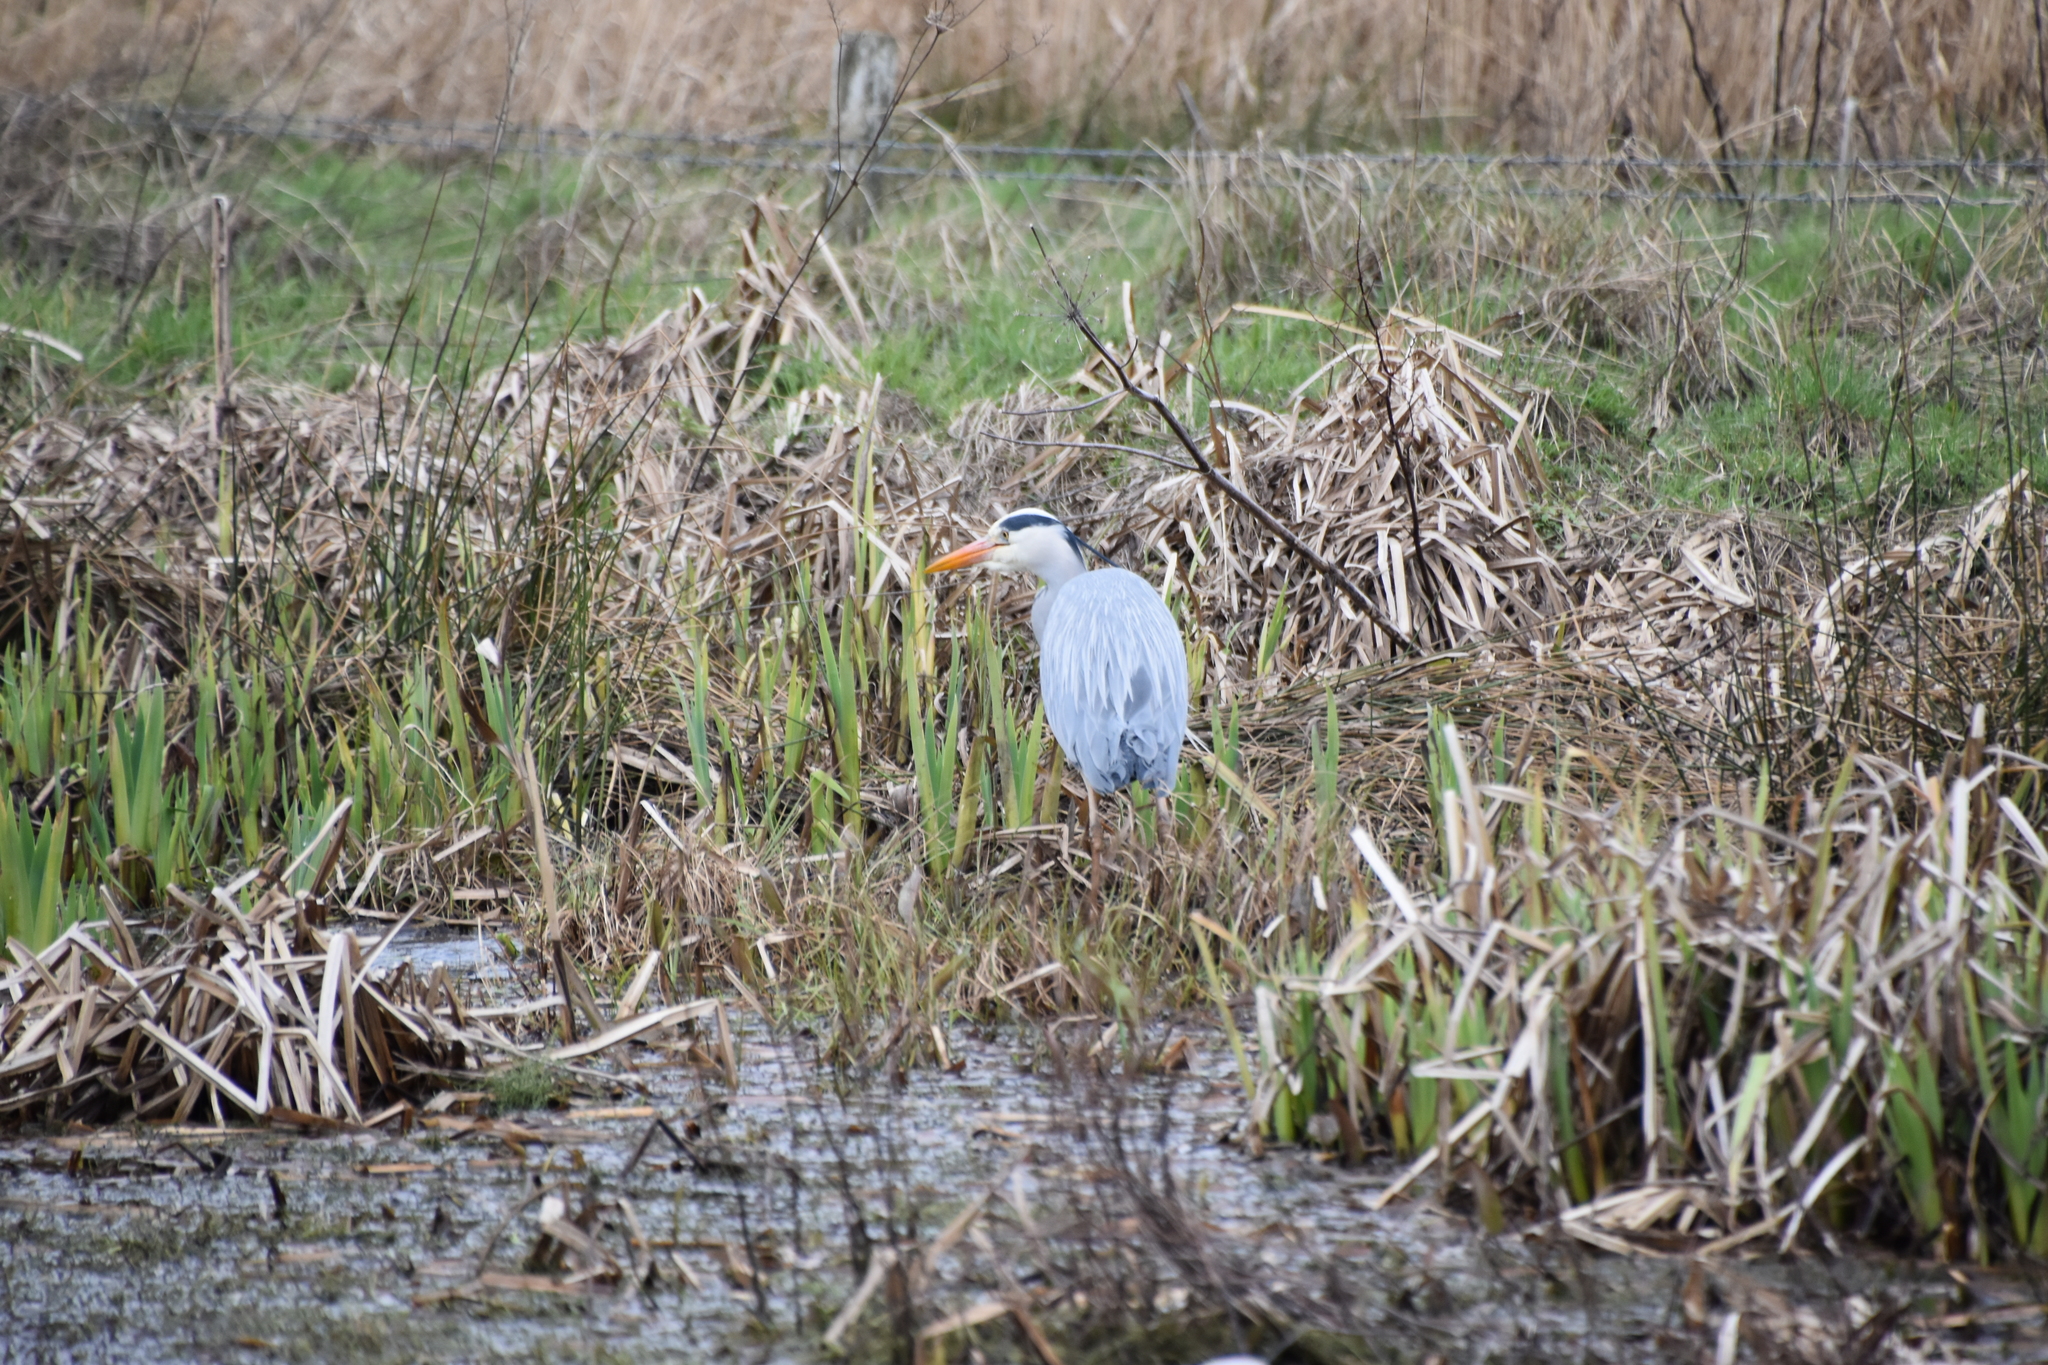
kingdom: Animalia
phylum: Chordata
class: Aves
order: Pelecaniformes
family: Ardeidae
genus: Ardea
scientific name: Ardea cinerea
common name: Grey heron
